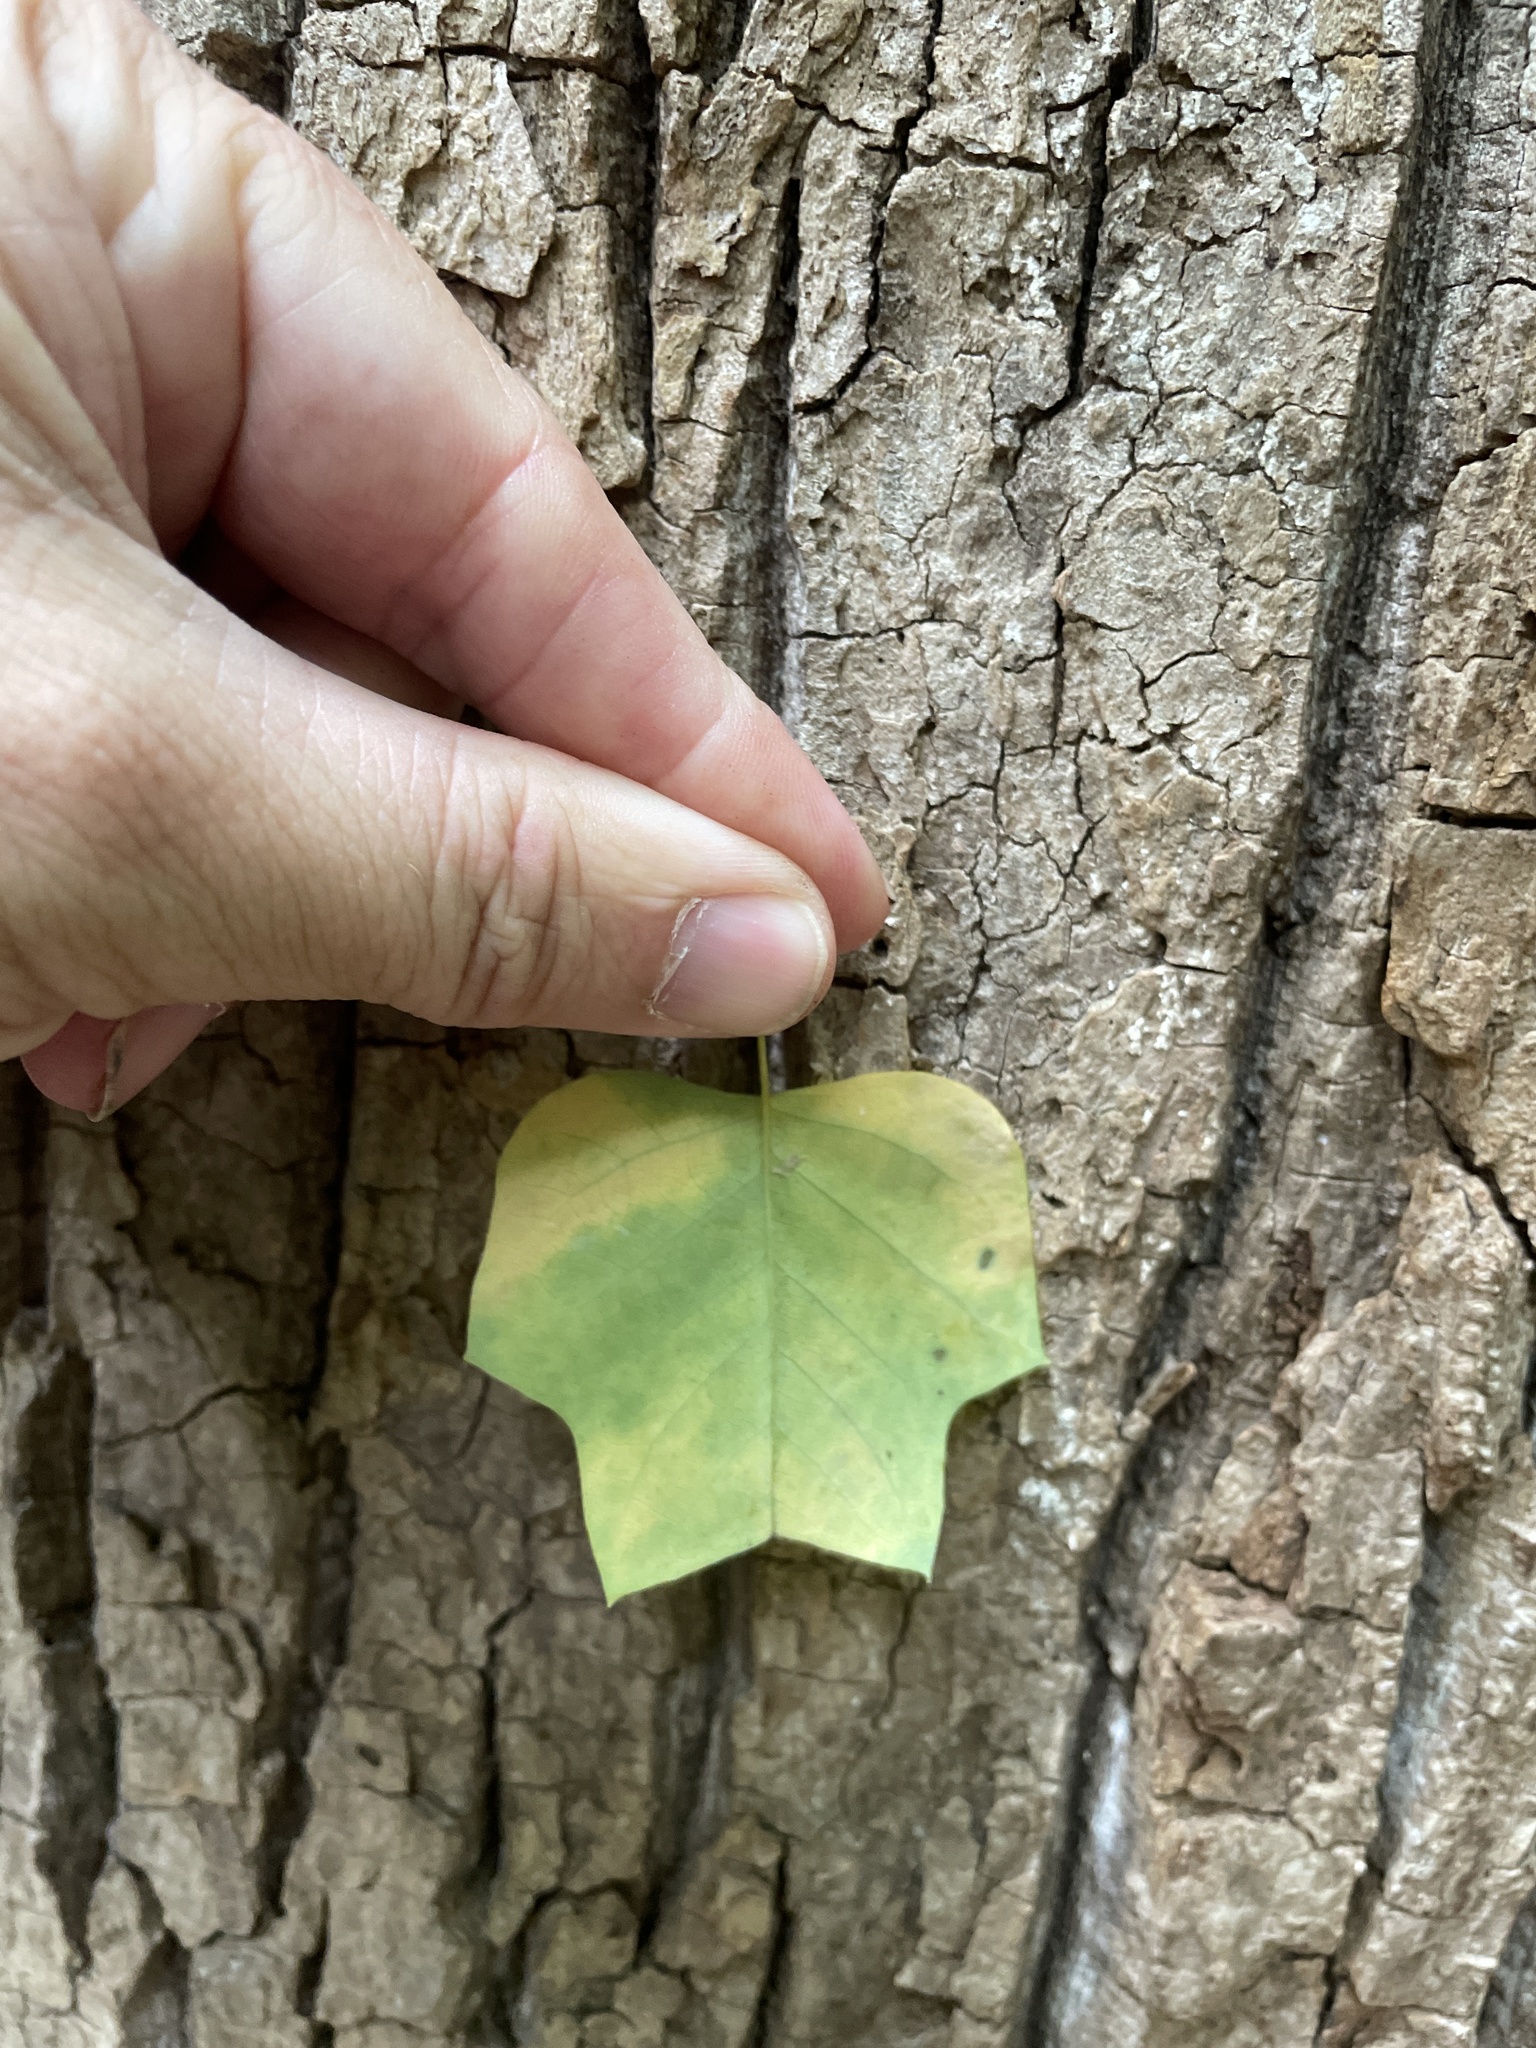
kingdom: Plantae
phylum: Tracheophyta
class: Magnoliopsida
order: Magnoliales
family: Magnoliaceae
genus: Liriodendron
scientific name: Liriodendron tulipifera
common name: Tulip tree
